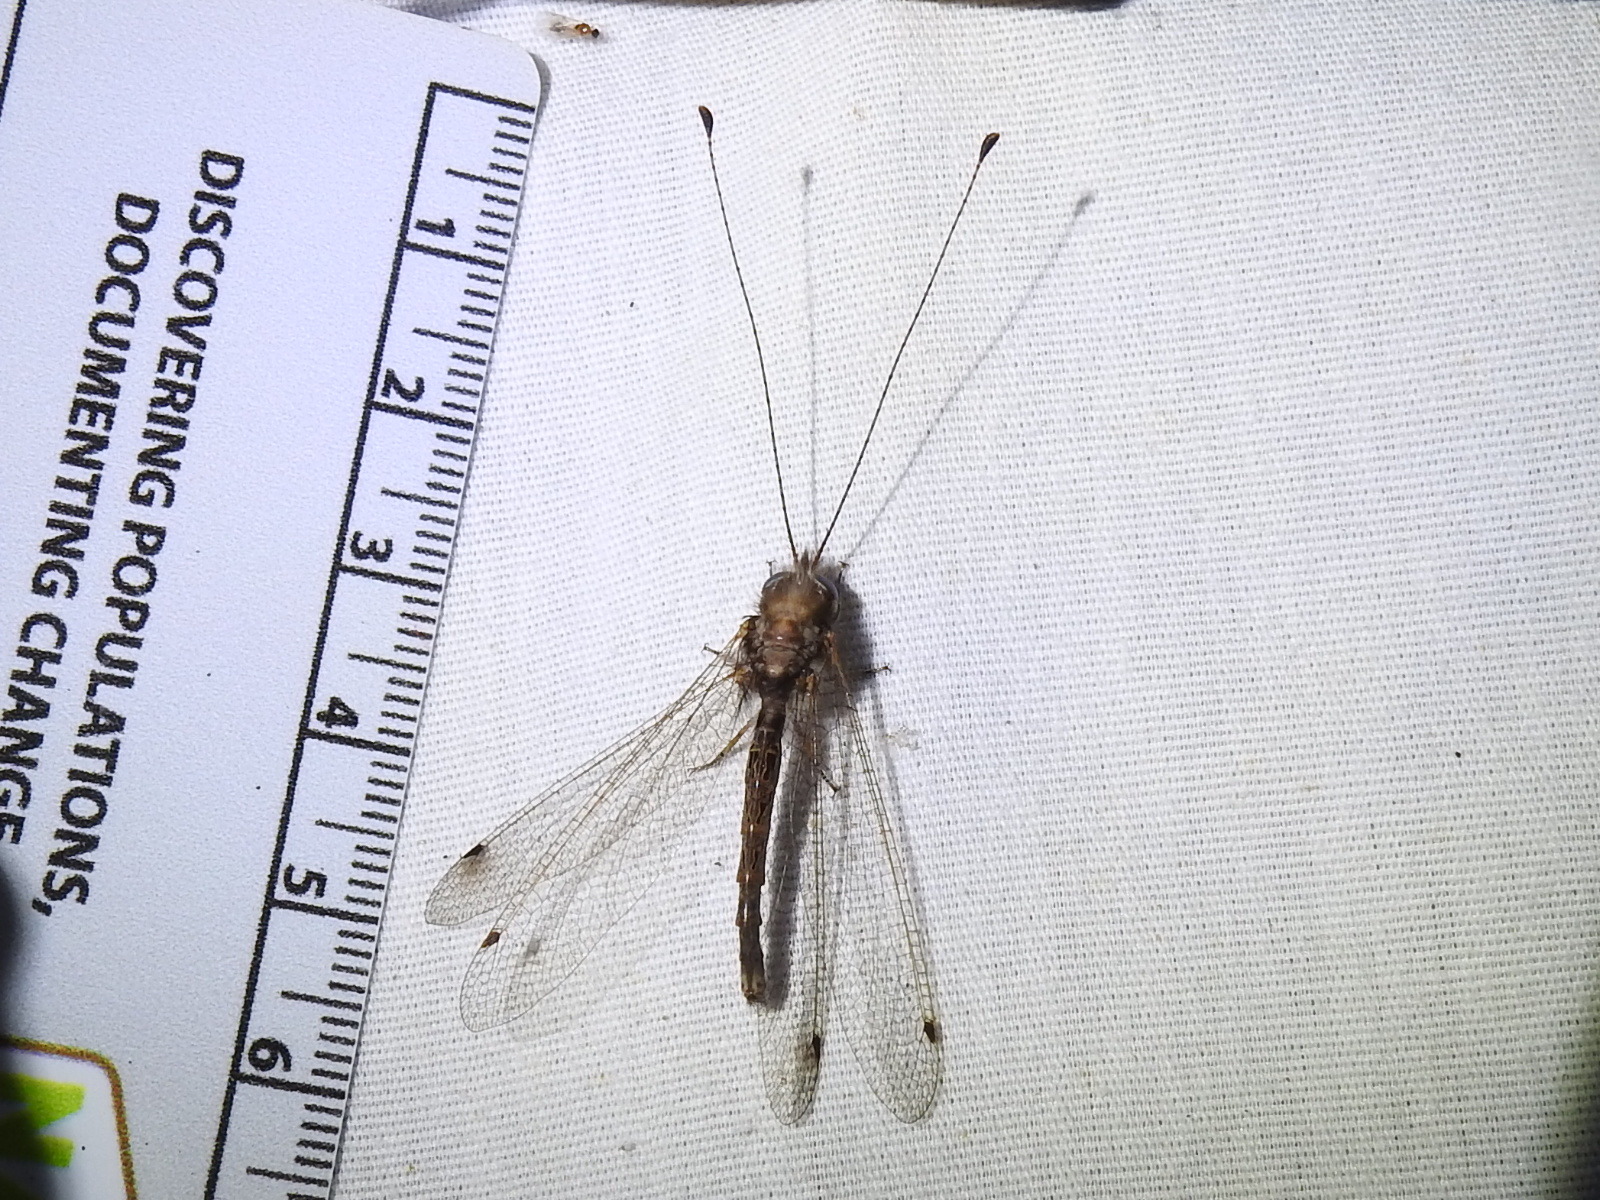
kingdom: Animalia
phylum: Arthropoda
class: Insecta
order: Neuroptera
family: Ascalaphidae
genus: Ululodes
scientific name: Ululodes macleayanus
